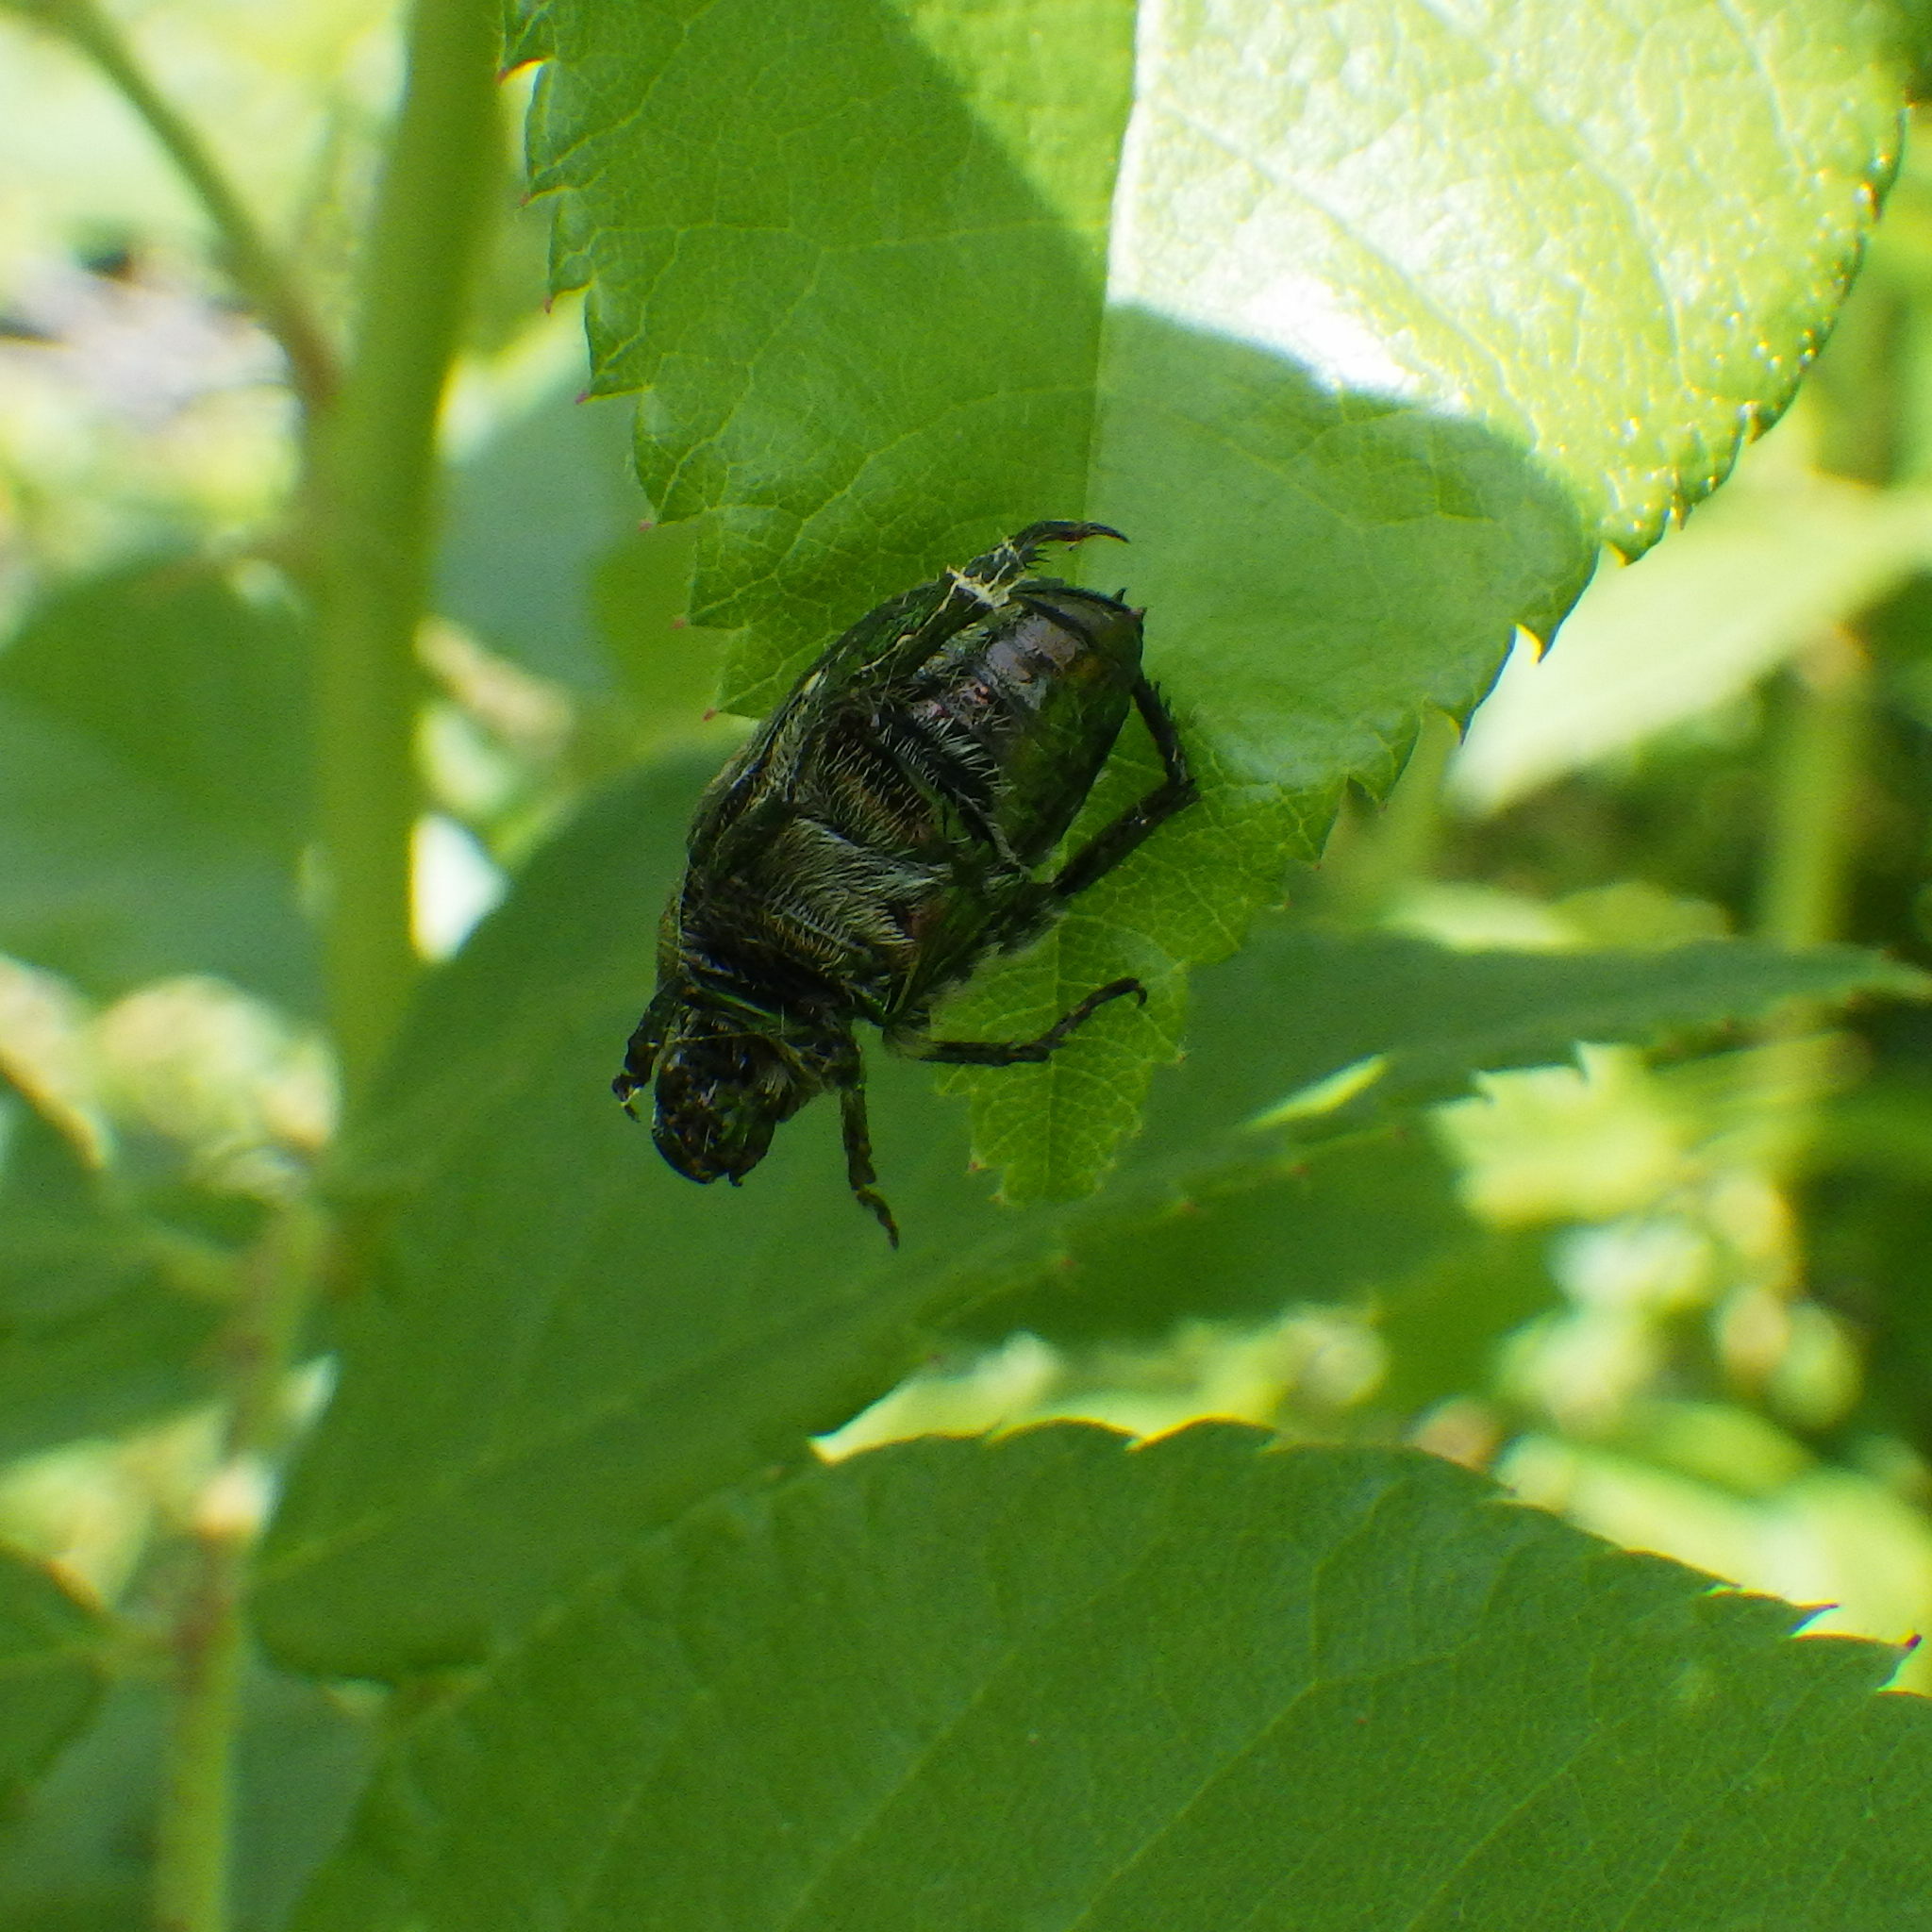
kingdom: Animalia
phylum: Arthropoda
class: Insecta
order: Coleoptera
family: Scarabaeidae
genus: Popillia
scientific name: Popillia japonica
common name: Japanese beetle
